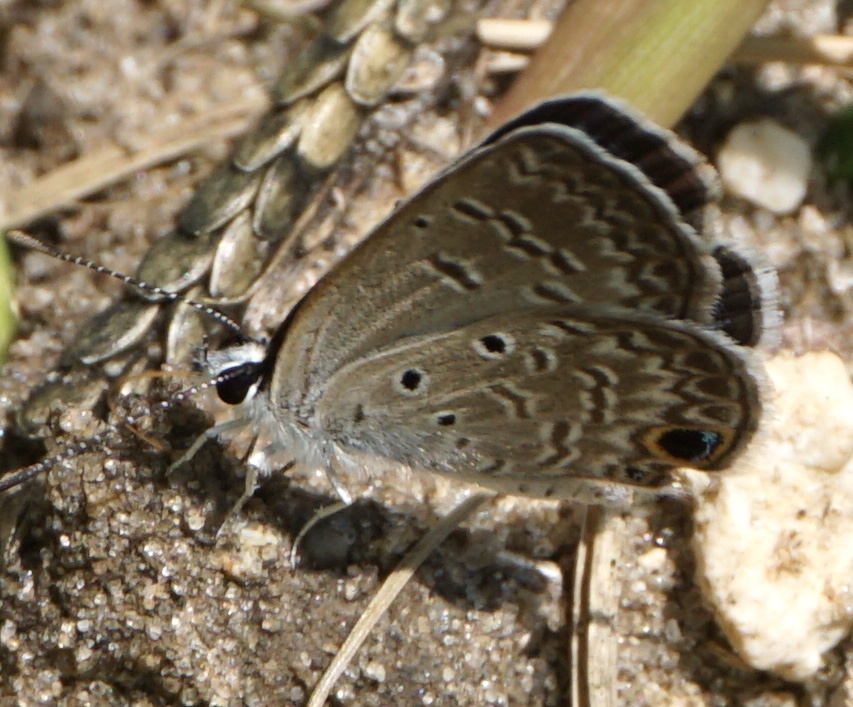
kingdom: Animalia
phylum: Arthropoda
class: Insecta
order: Lepidoptera
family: Lycaenidae
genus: Hemiargus
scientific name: Hemiargus ceraunus
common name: Ceraunus blue
